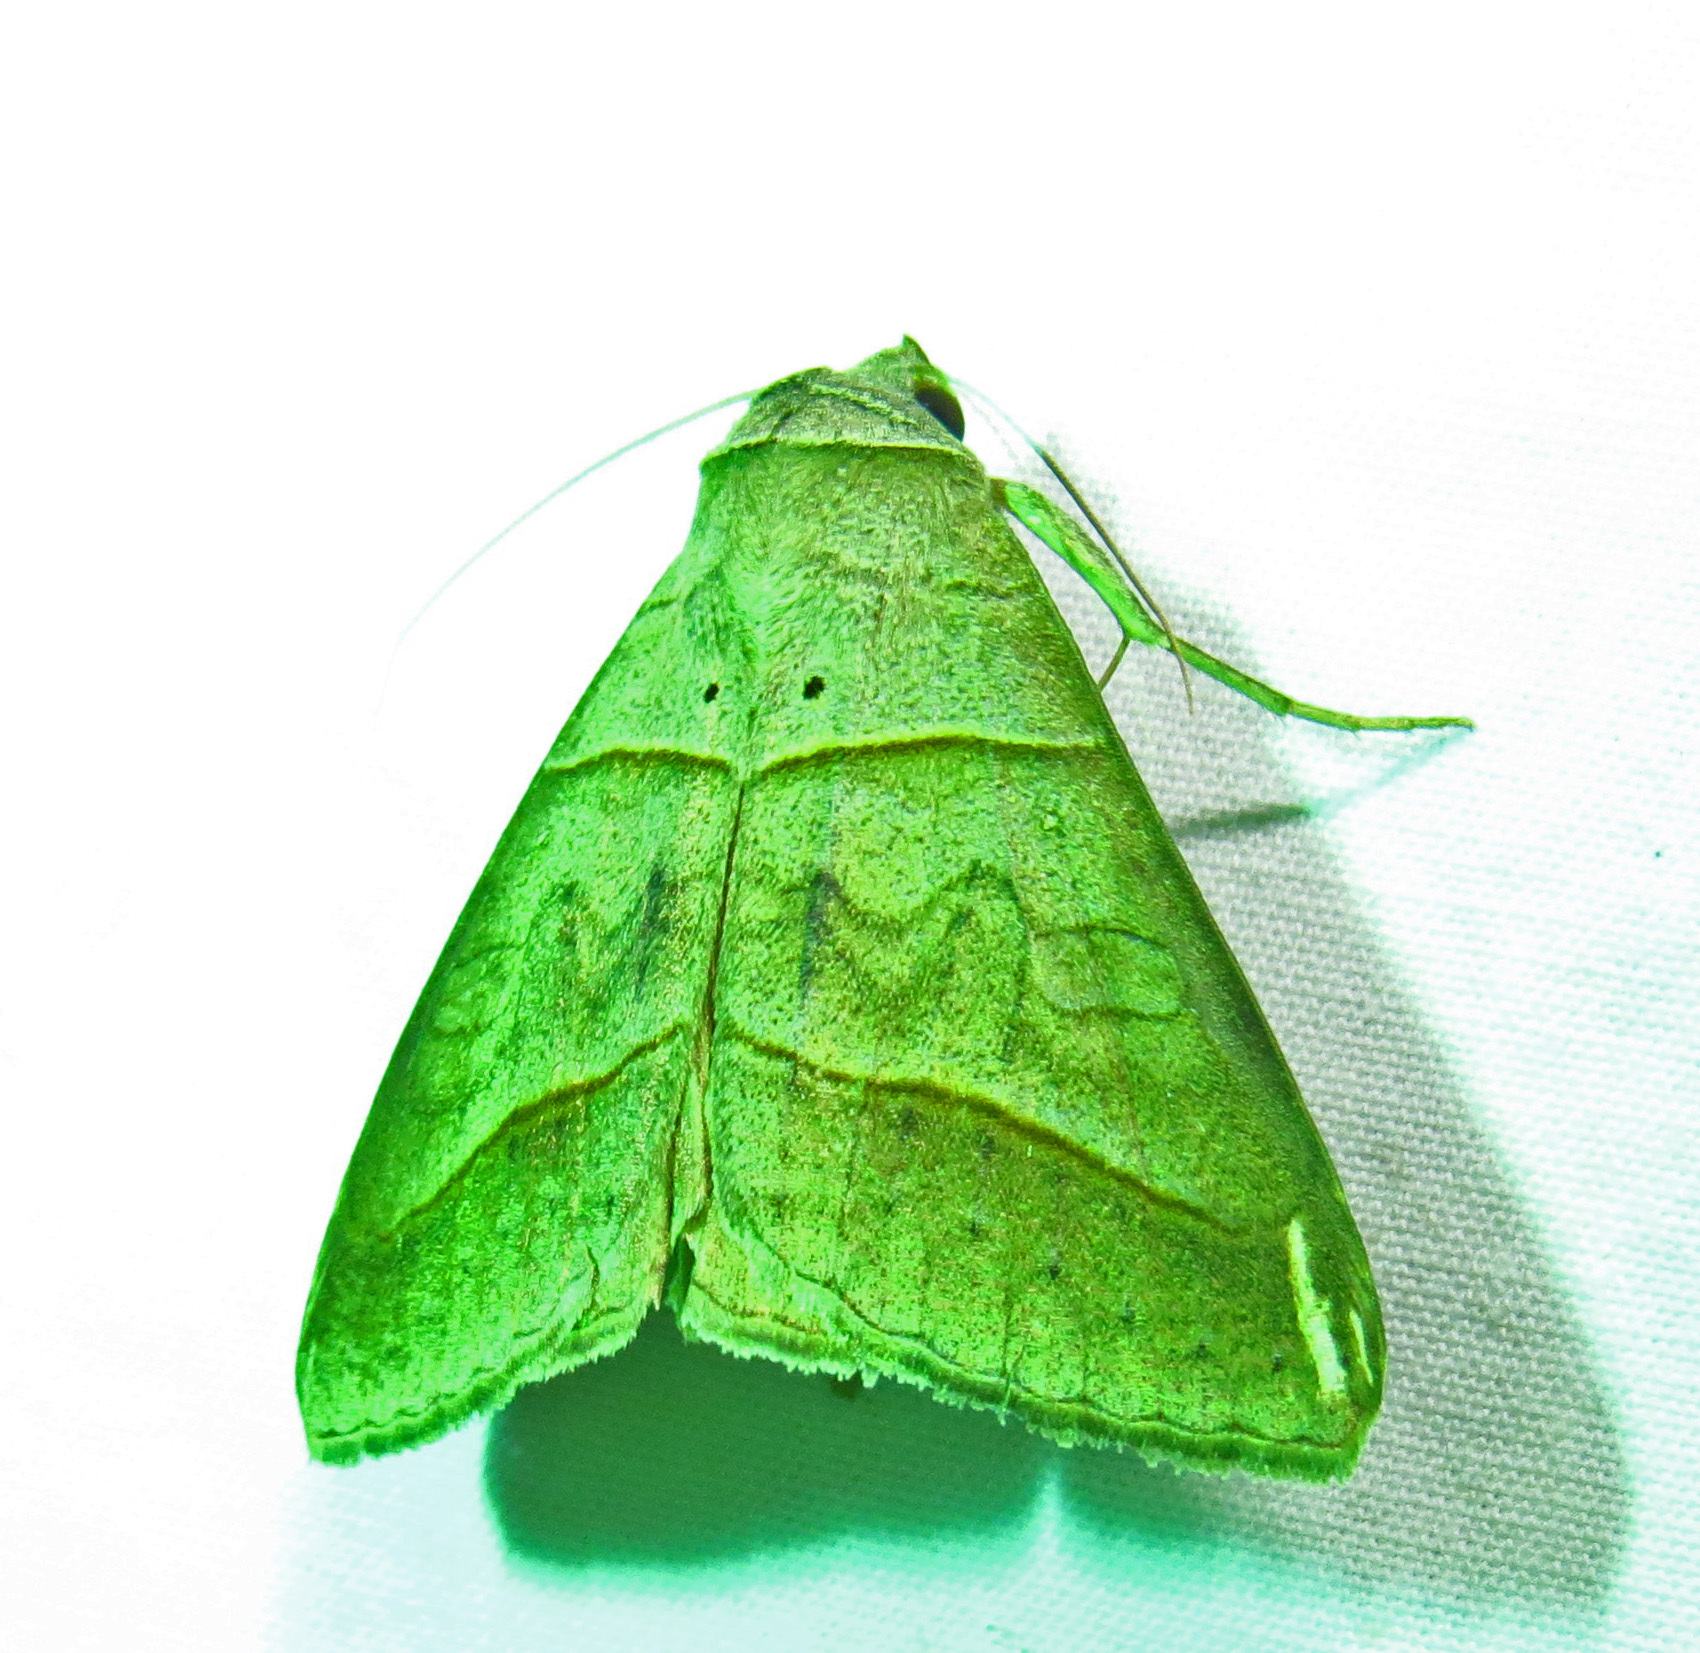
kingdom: Animalia
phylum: Arthropoda
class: Insecta
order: Lepidoptera
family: Erebidae
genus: Mocis
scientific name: Mocis texana
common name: Texas mocis moth
